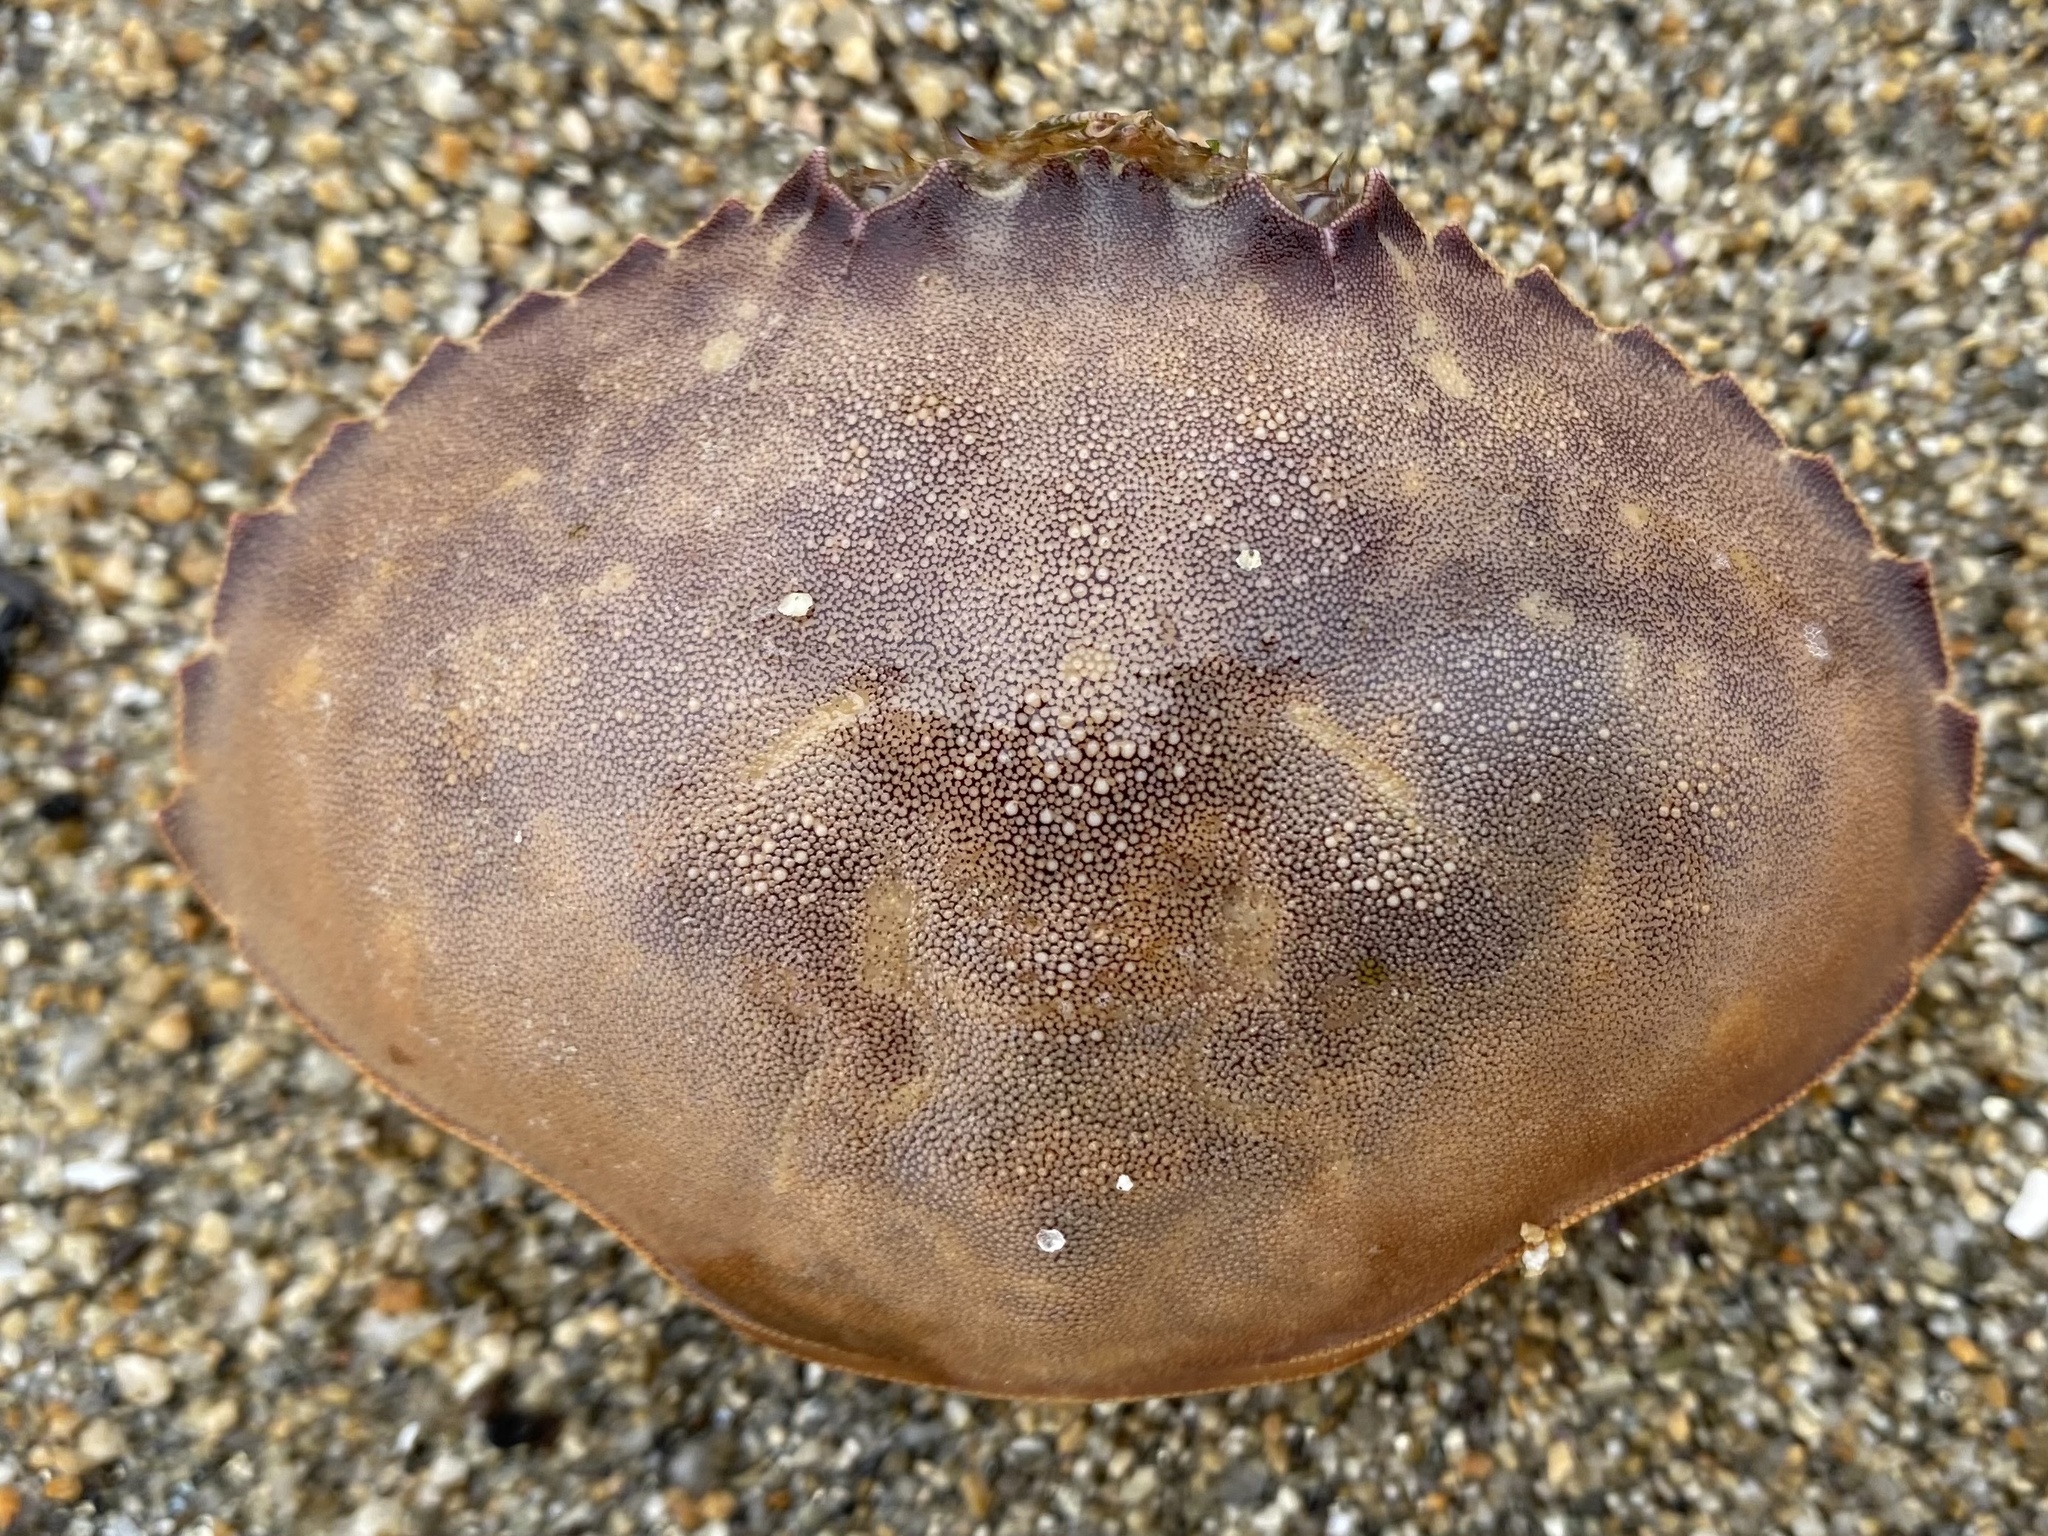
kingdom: Animalia
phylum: Arthropoda
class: Malacostraca
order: Decapoda
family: Cancridae
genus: Metacarcinus
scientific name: Metacarcinus gracilis
